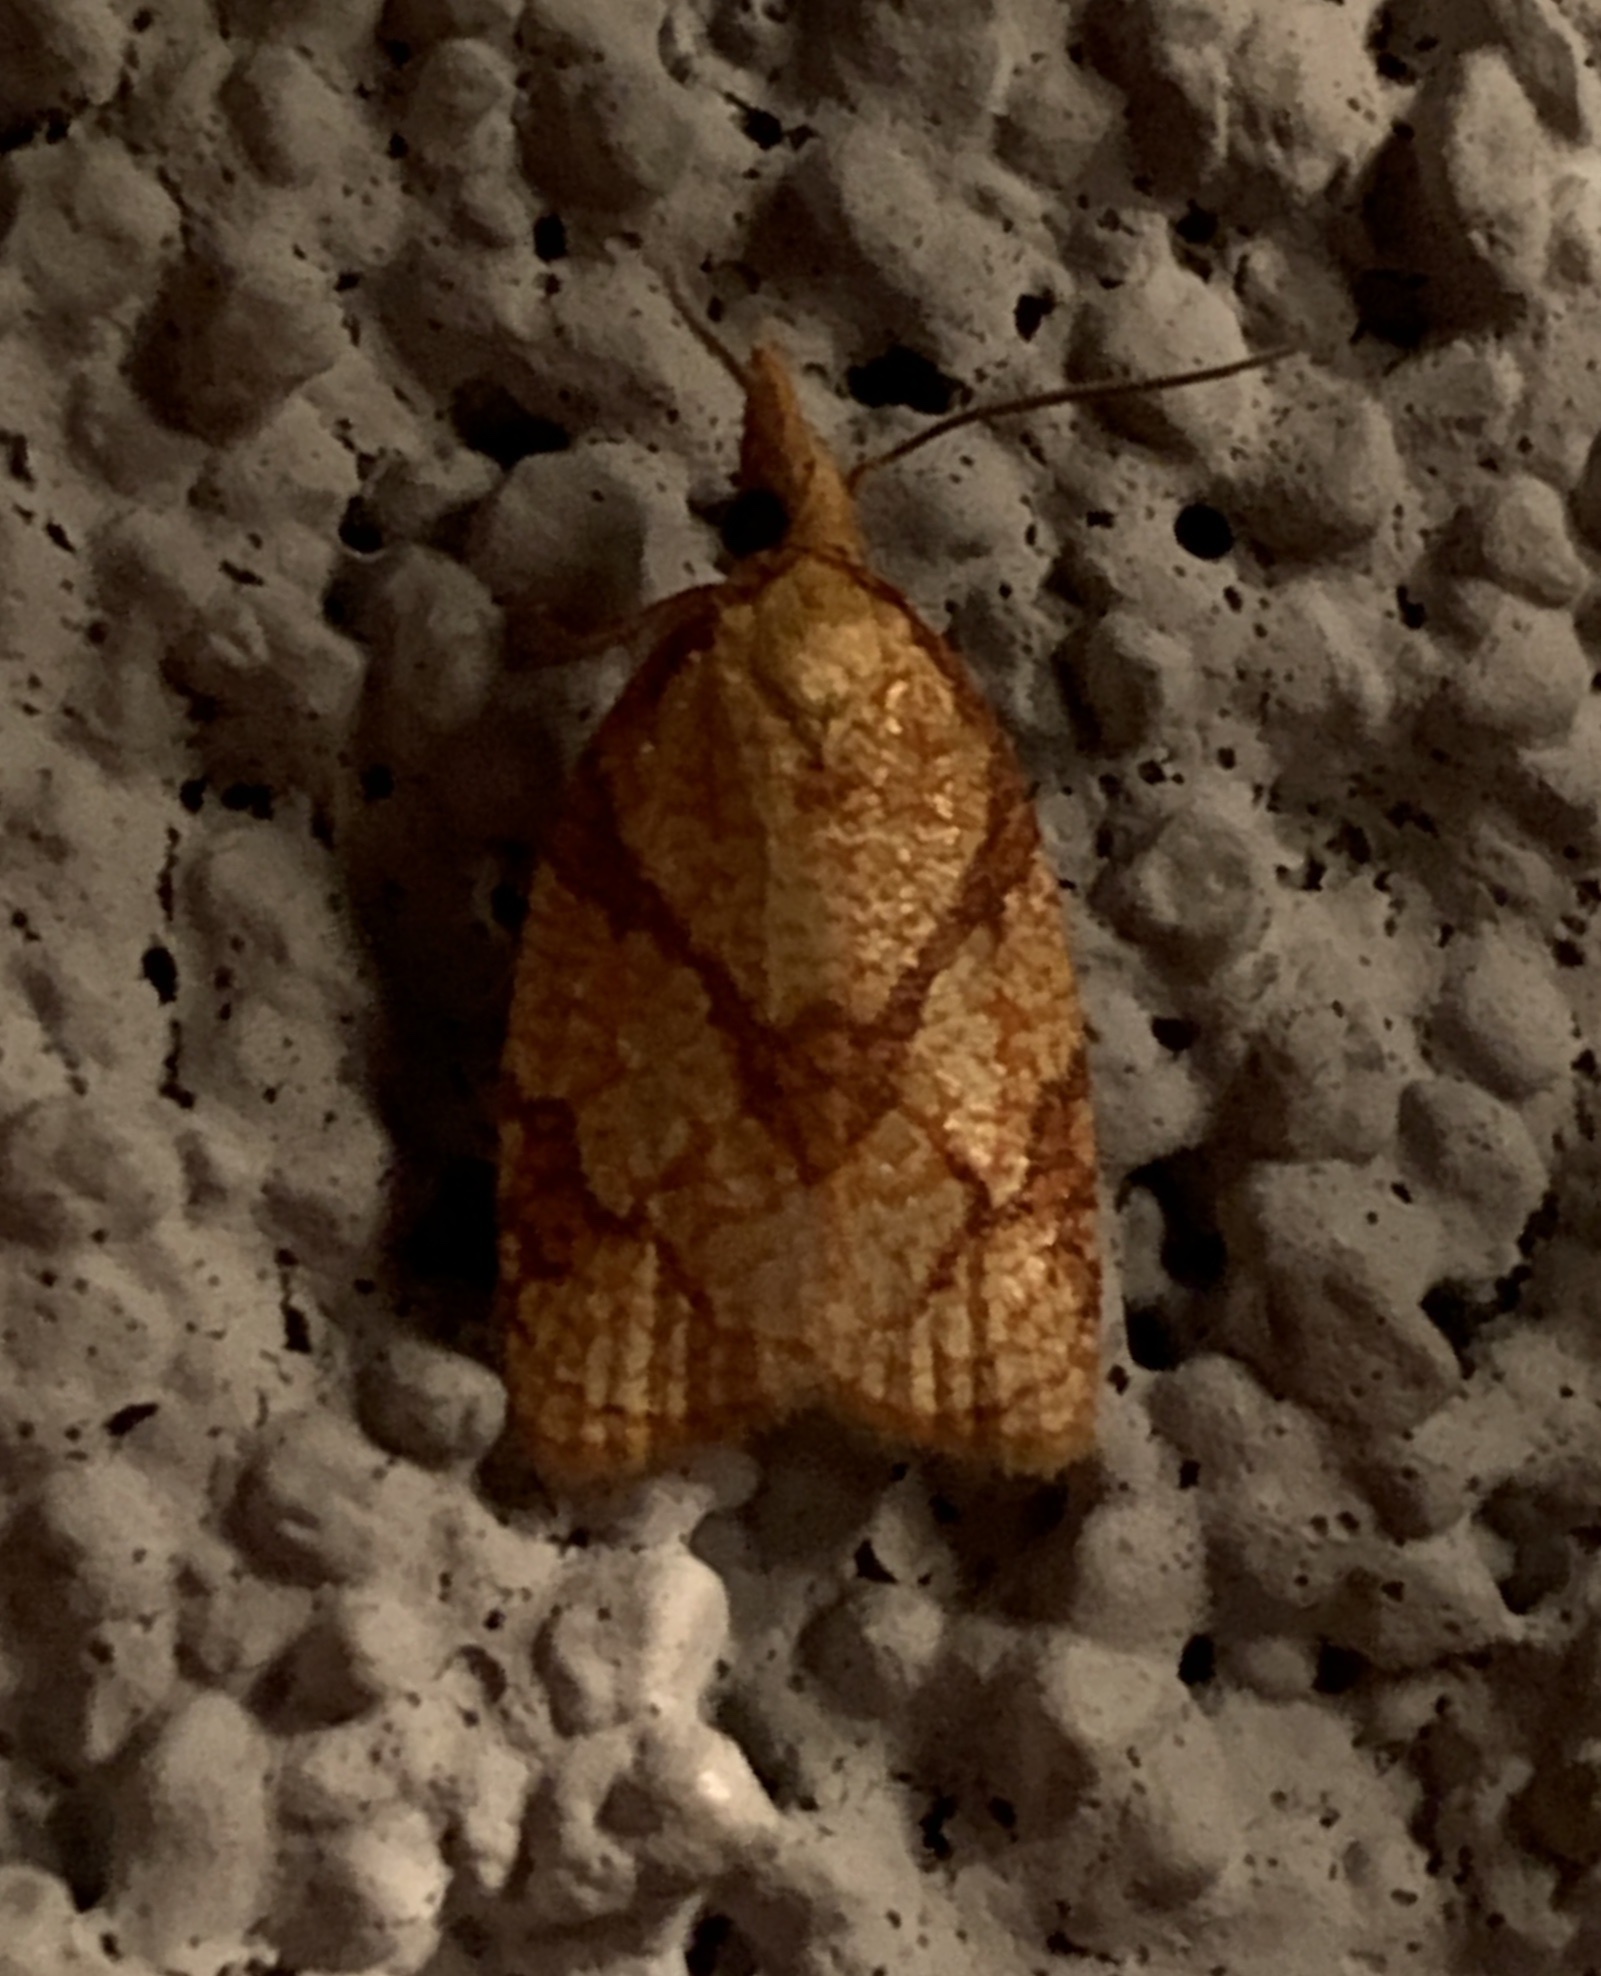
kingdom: Animalia
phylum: Arthropoda
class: Insecta
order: Lepidoptera
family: Tortricidae
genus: Cenopis
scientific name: Cenopis reticulatana
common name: Reticulated fruitworm moth
